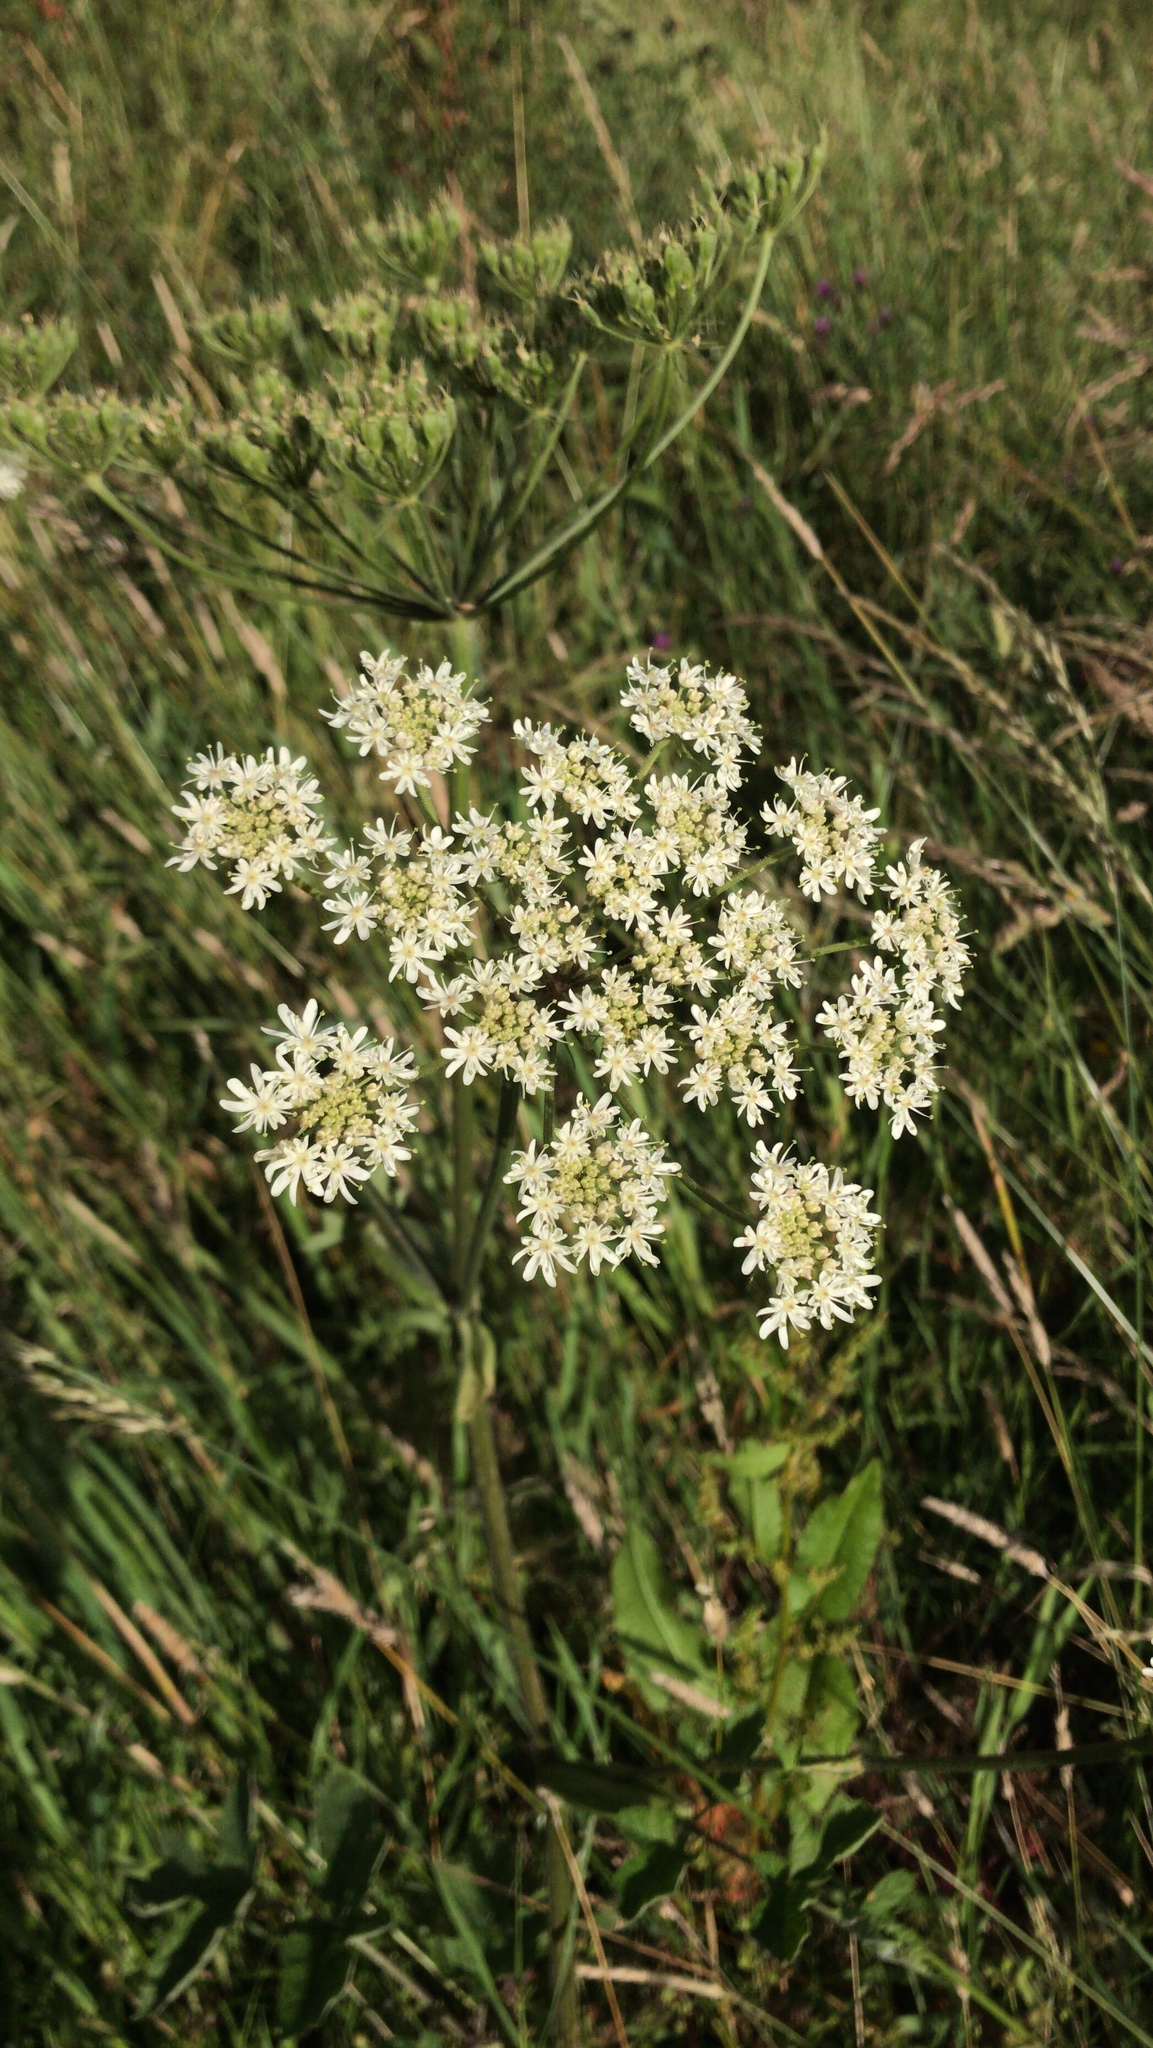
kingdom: Plantae
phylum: Tracheophyta
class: Magnoliopsida
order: Apiales
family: Apiaceae
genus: Heracleum
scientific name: Heracleum sphondylium
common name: Hogweed
